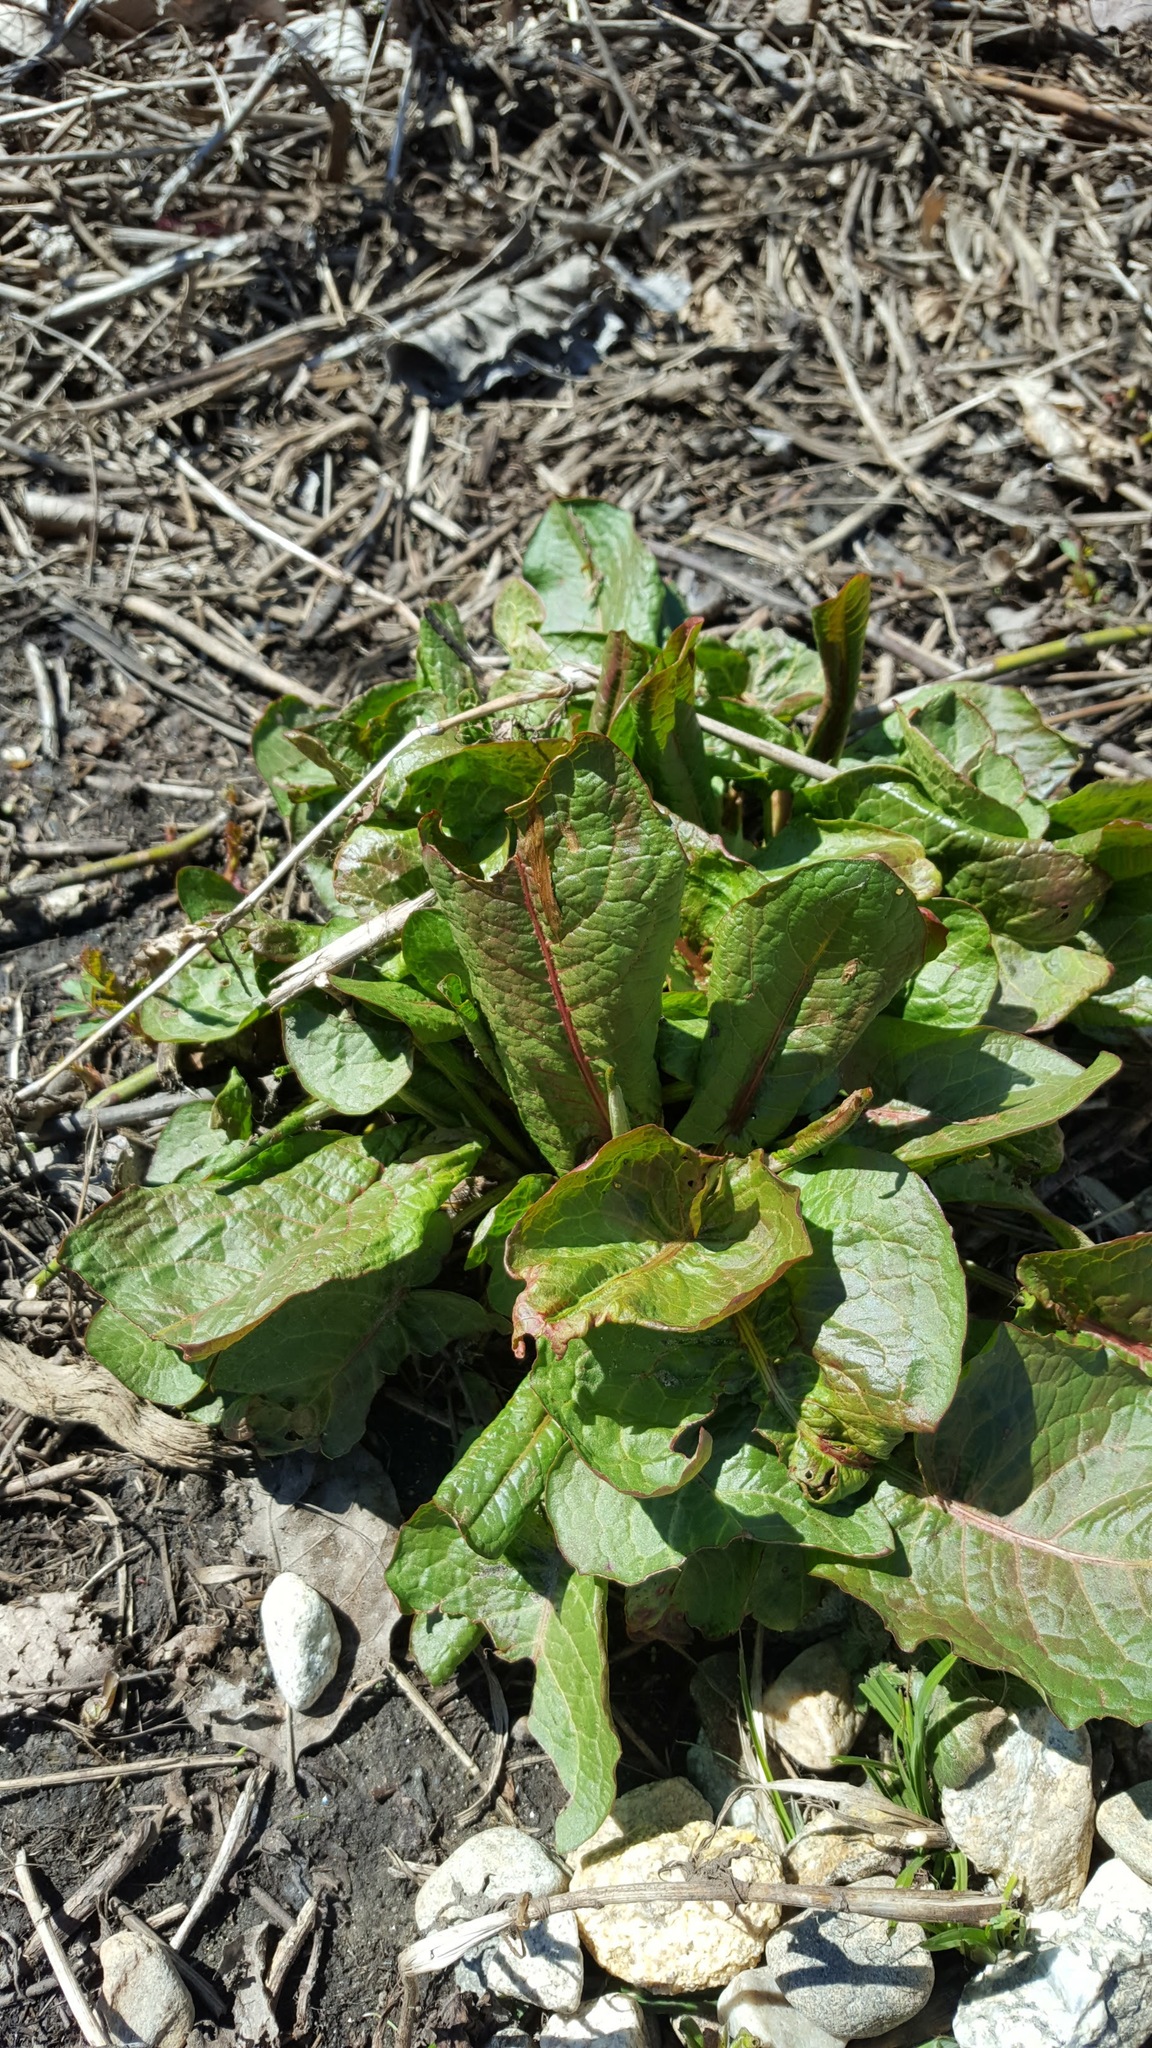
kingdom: Plantae
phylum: Tracheophyta
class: Magnoliopsida
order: Caryophyllales
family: Polygonaceae
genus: Rumex
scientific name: Rumex obtusifolius
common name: Bitter dock
